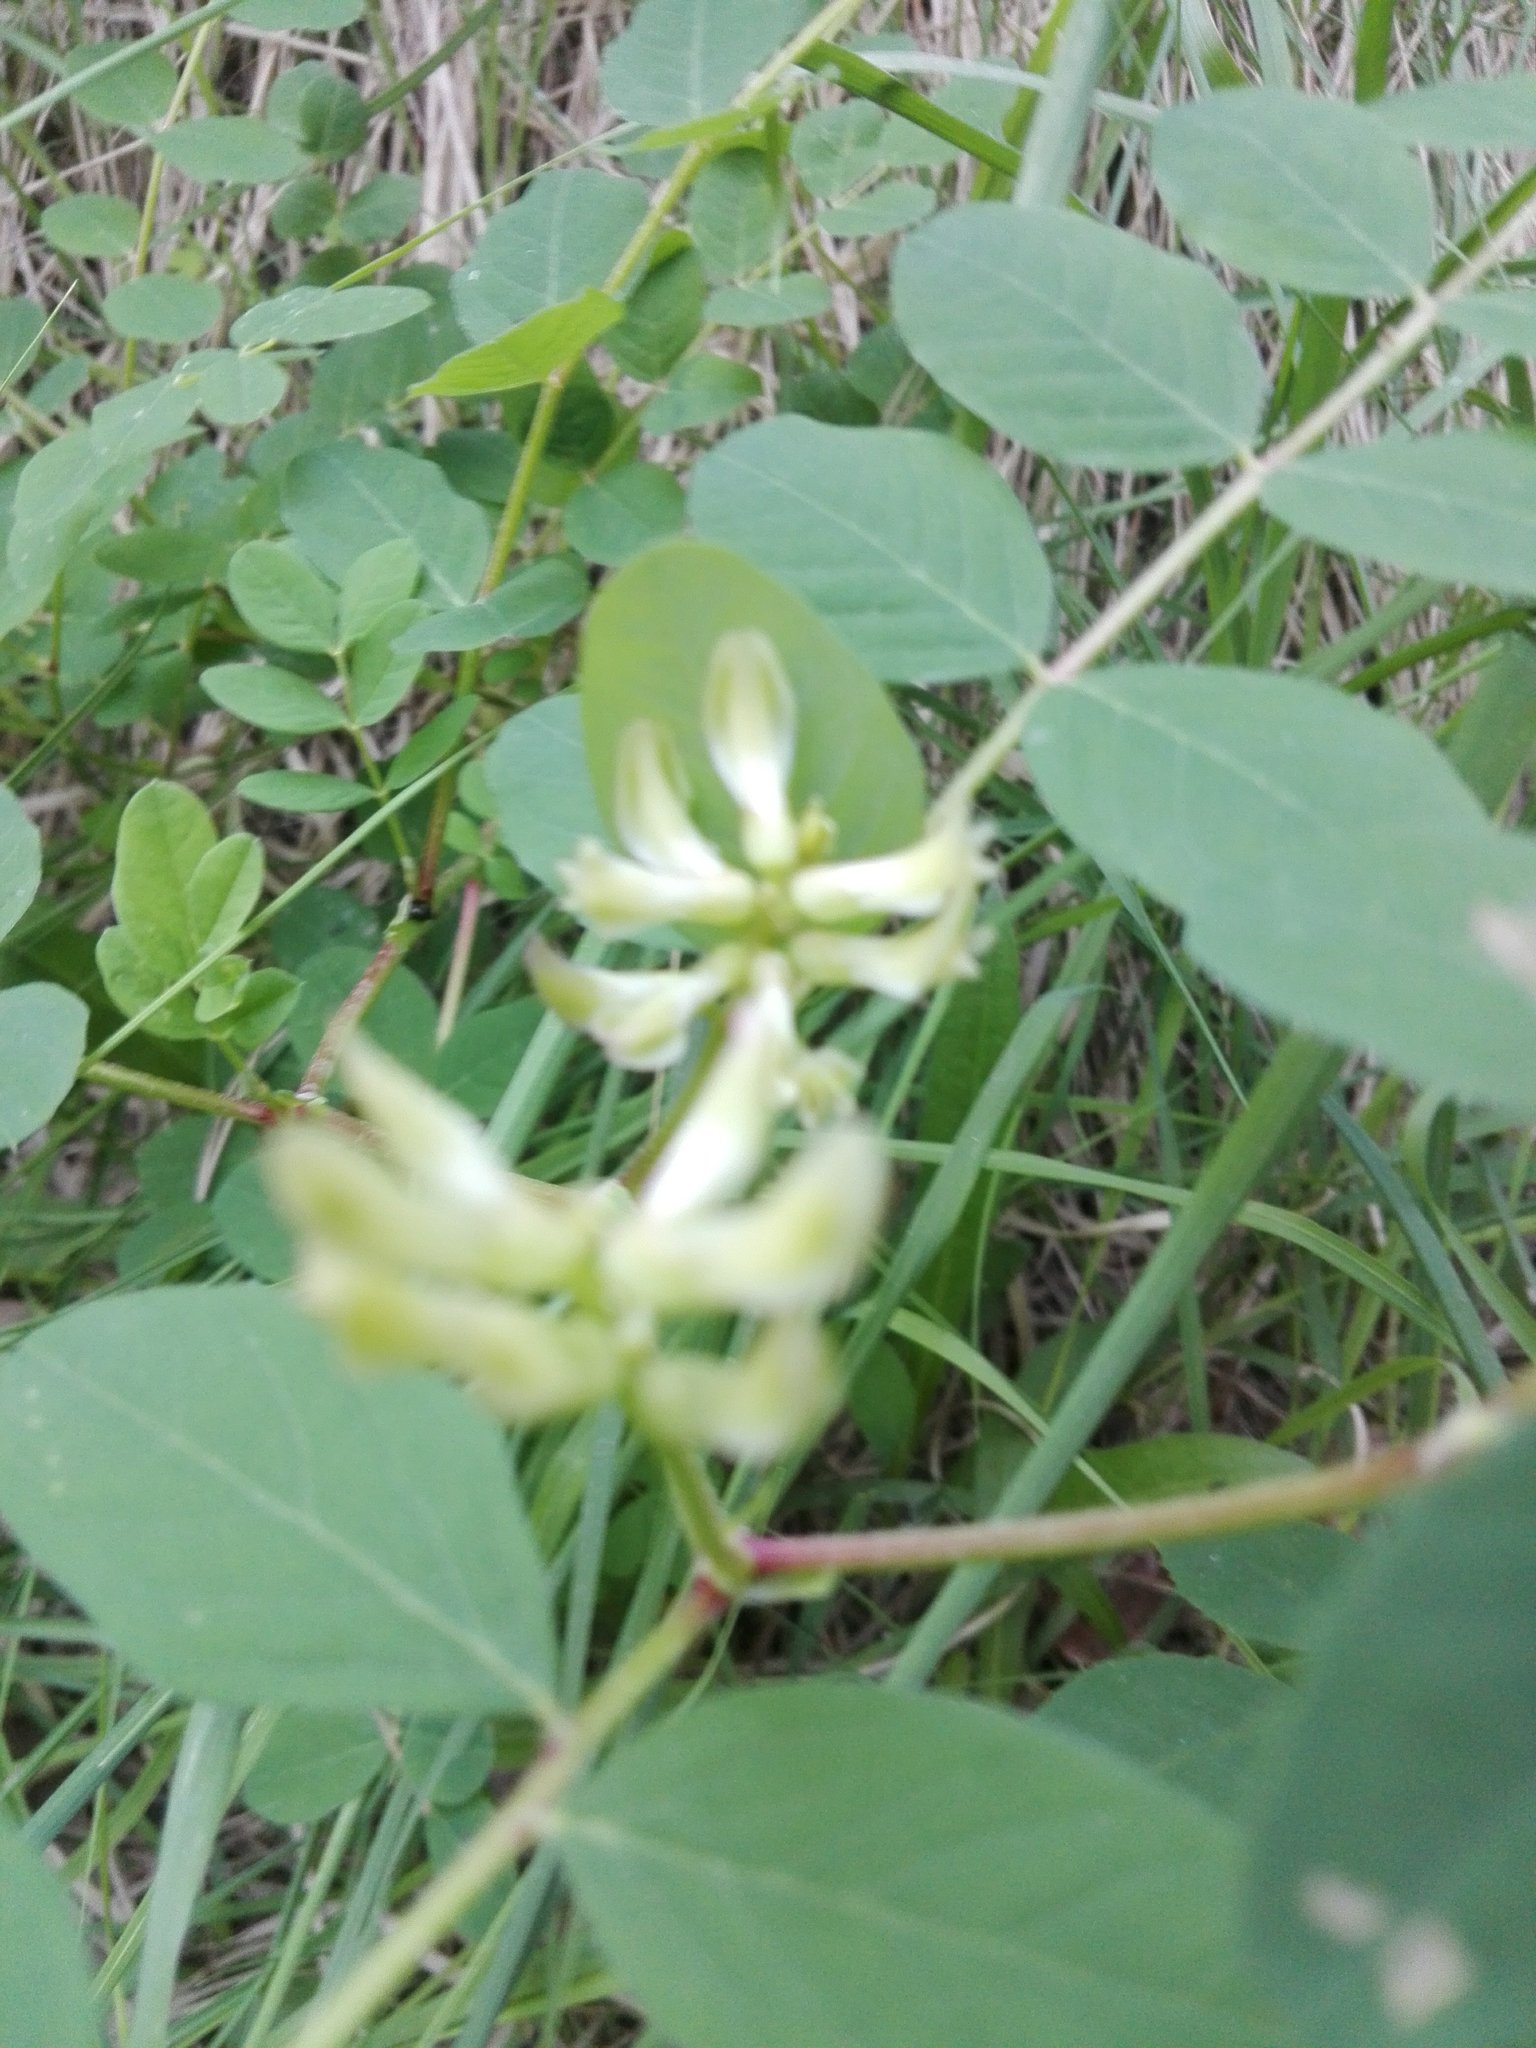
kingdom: Plantae
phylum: Tracheophyta
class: Magnoliopsida
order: Fabales
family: Fabaceae
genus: Astragalus
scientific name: Astragalus glycyphyllos
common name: Wild liquorice
